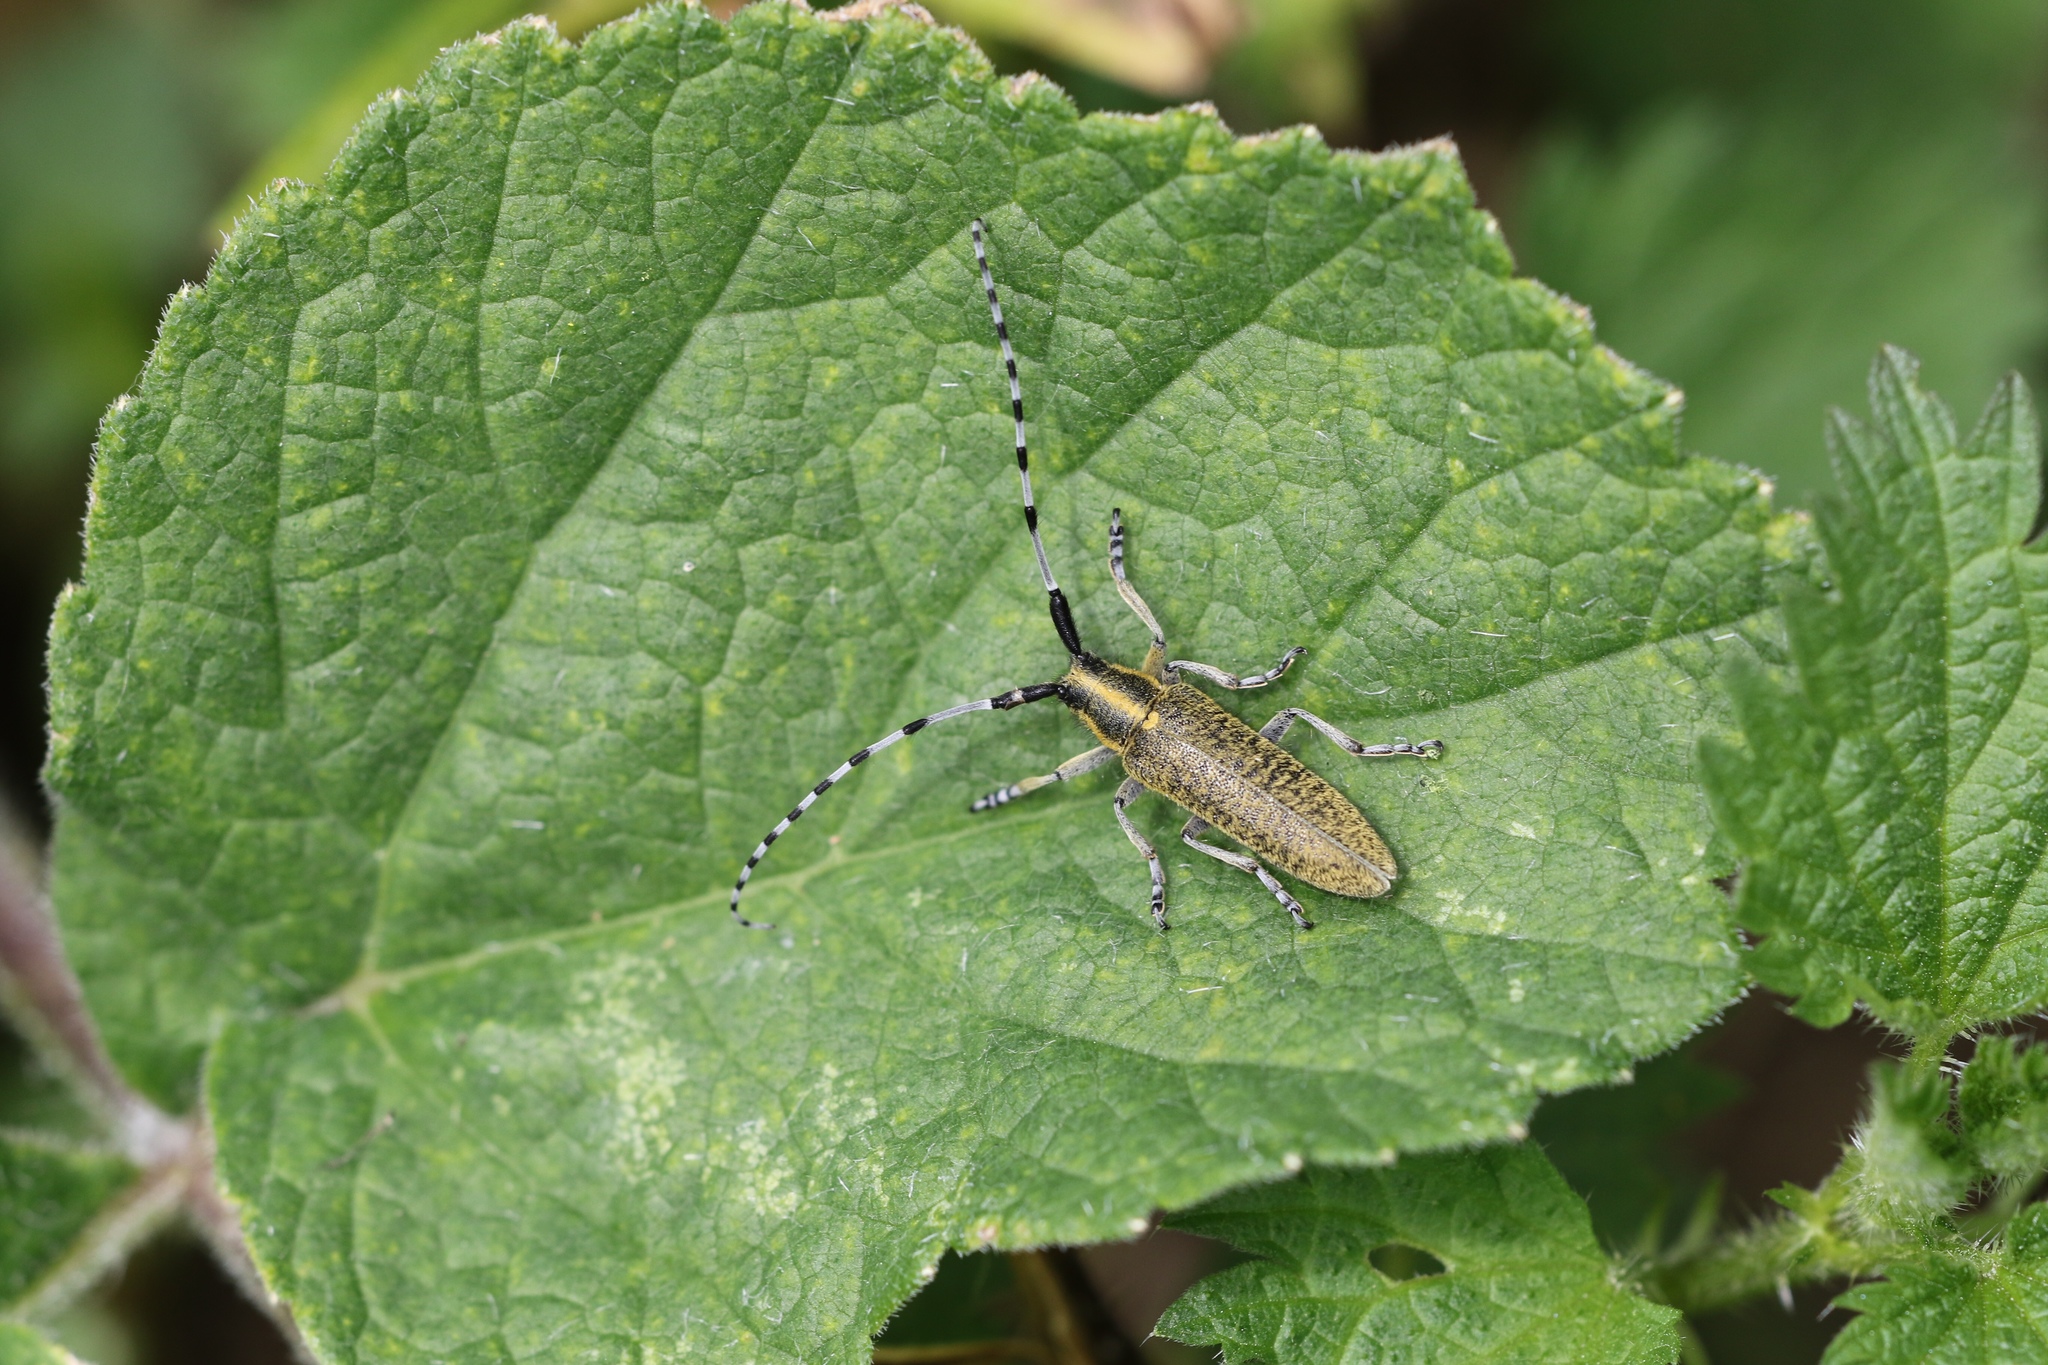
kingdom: Animalia
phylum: Arthropoda
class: Insecta
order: Coleoptera
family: Cerambycidae
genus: Agapanthia
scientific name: Agapanthia villosoviridescens
